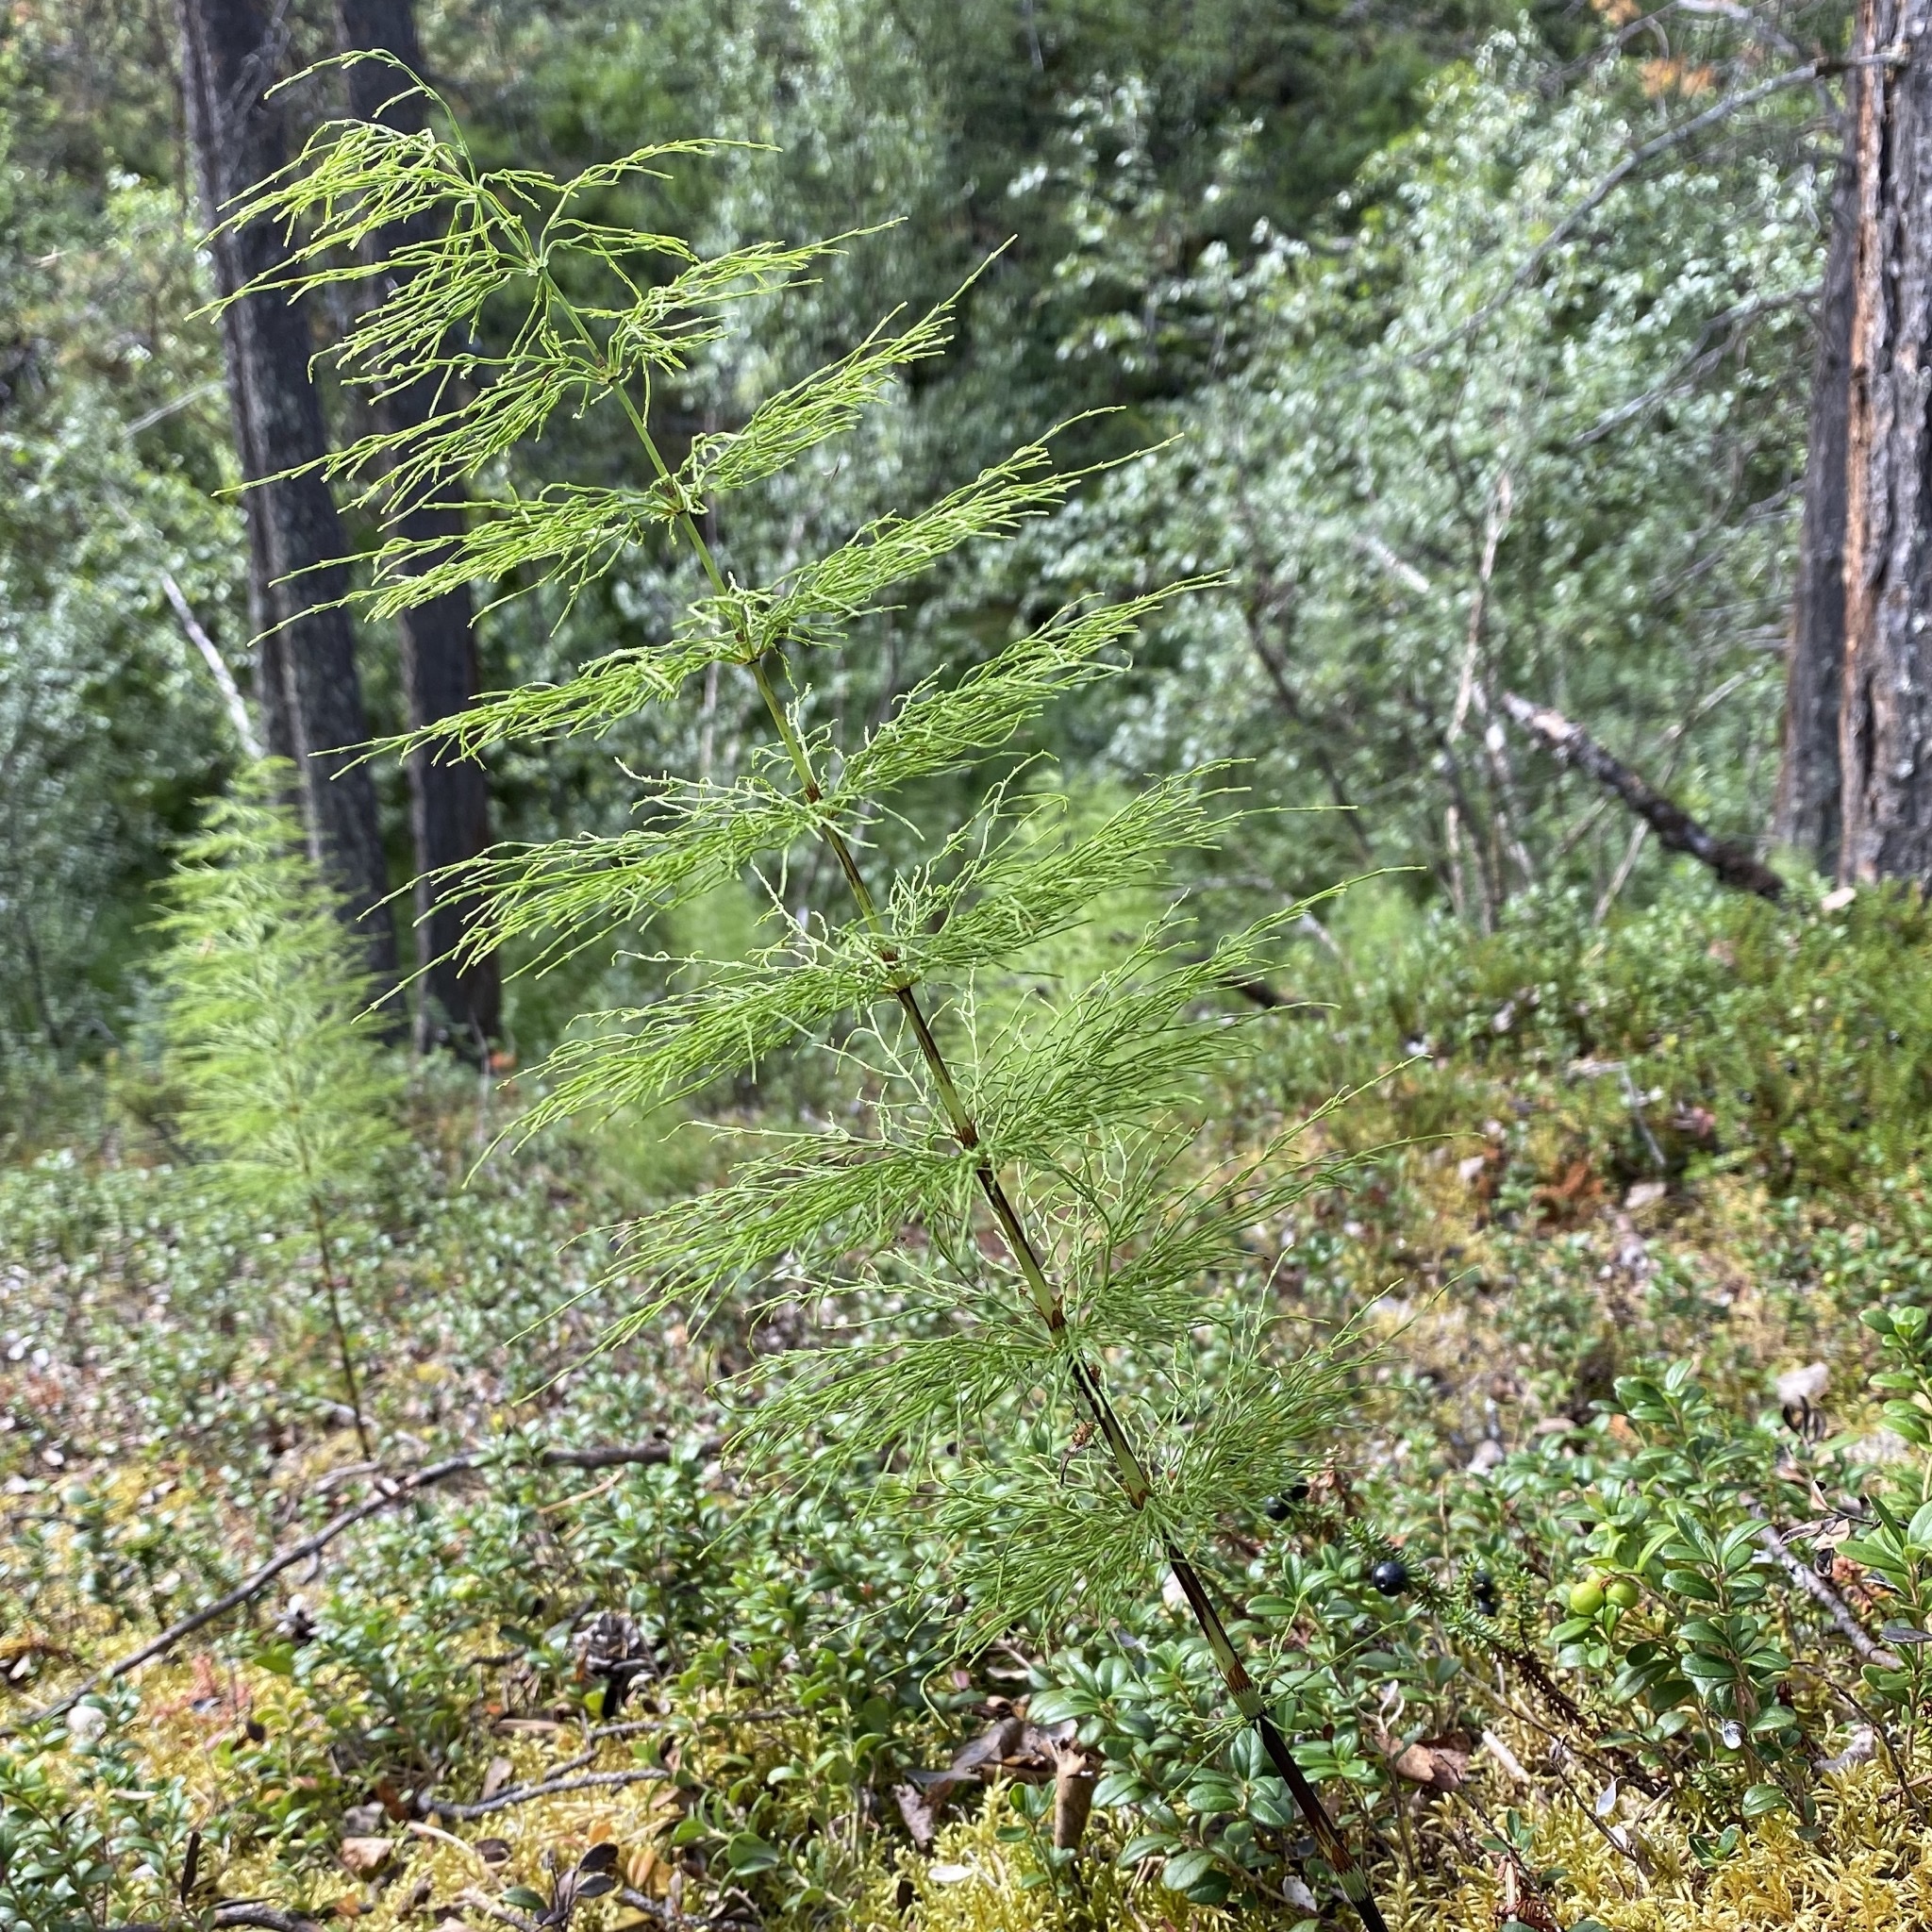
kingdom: Plantae
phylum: Tracheophyta
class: Polypodiopsida
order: Equisetales
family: Equisetaceae
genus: Equisetum
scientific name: Equisetum sylvaticum
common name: Wood horsetail
